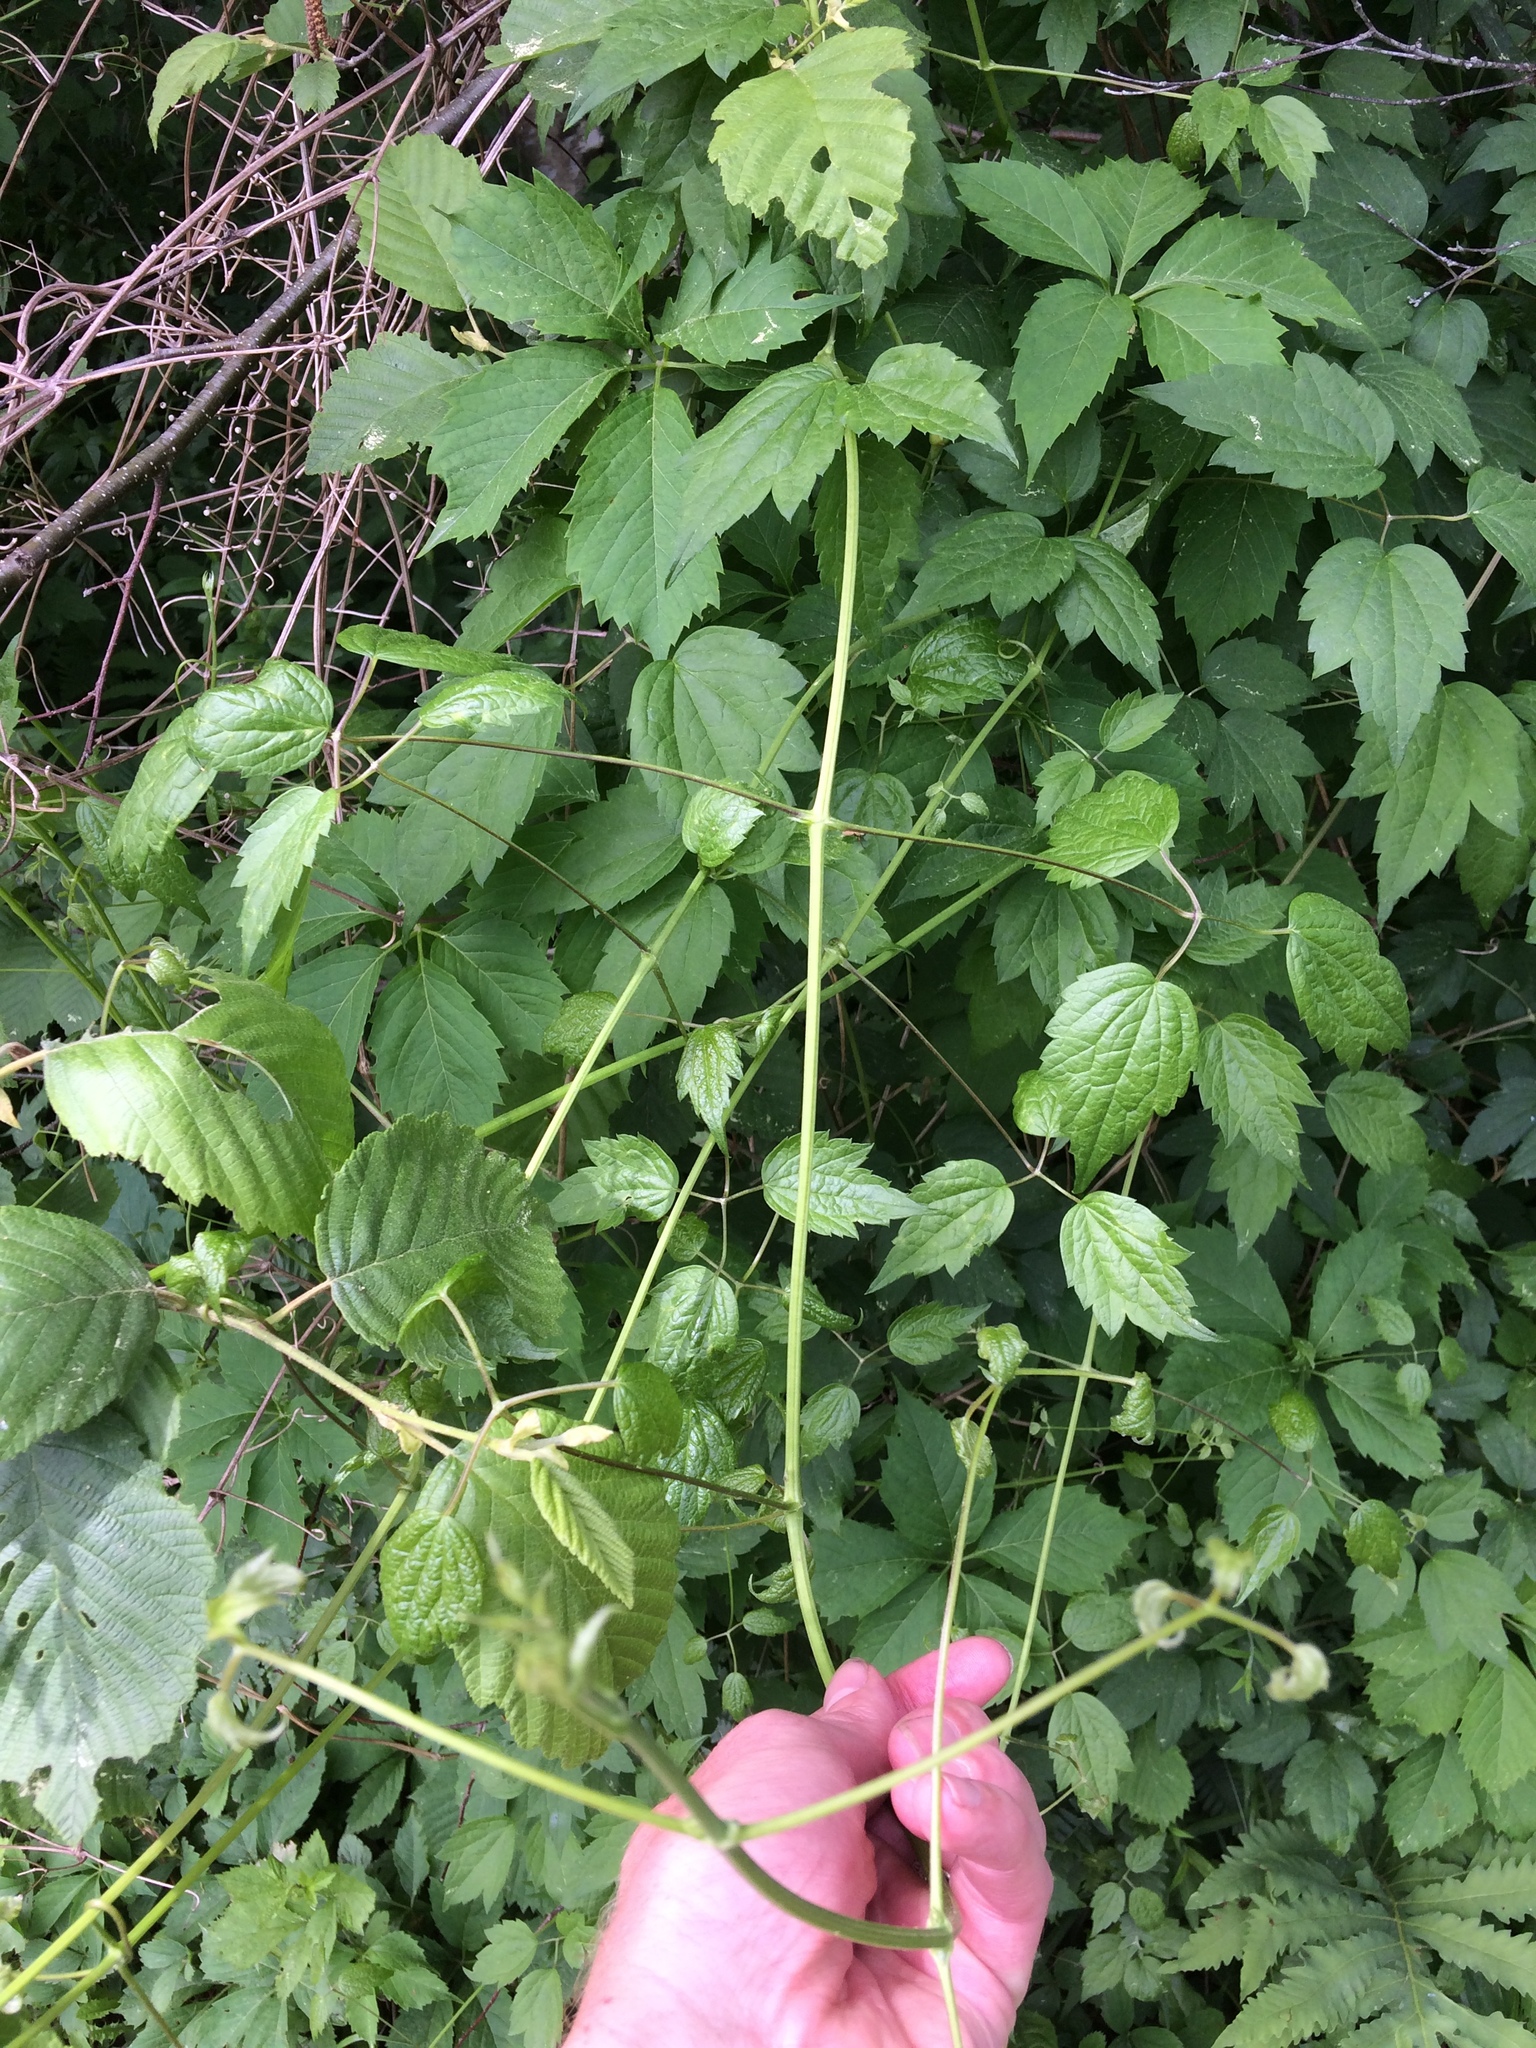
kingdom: Plantae
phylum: Tracheophyta
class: Magnoliopsida
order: Ranunculales
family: Ranunculaceae
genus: Clematis
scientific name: Clematis virginiana
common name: Virgin's-bower
